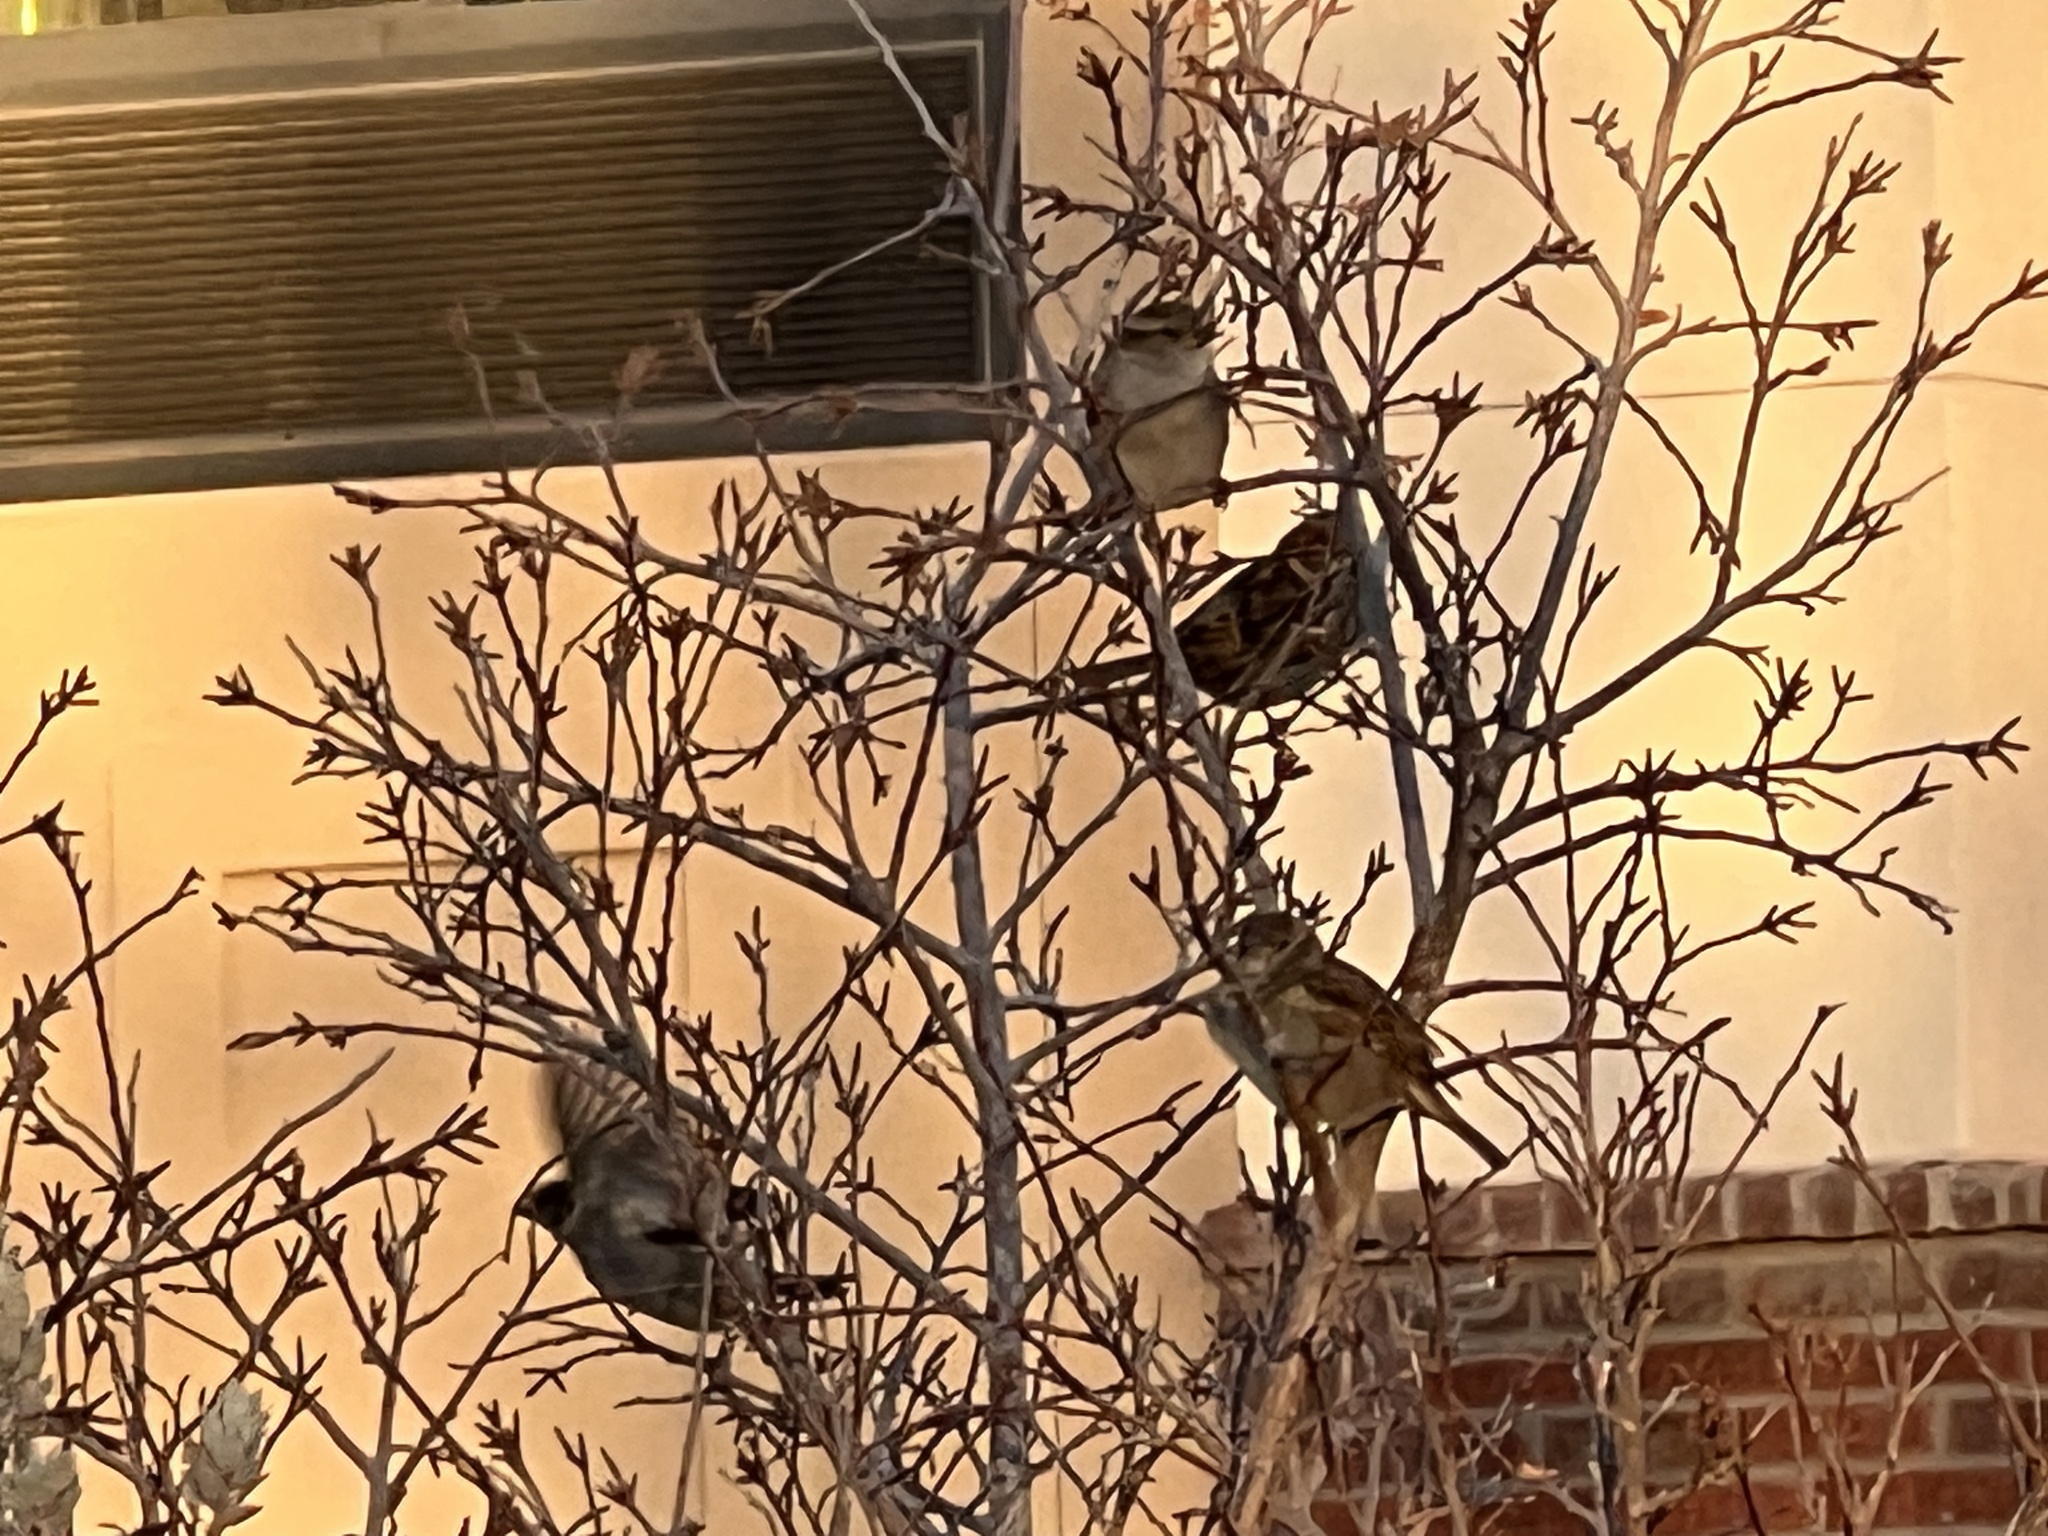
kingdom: Animalia
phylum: Chordata
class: Aves
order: Passeriformes
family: Passeridae
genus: Passer
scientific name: Passer domesticus
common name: House sparrow
